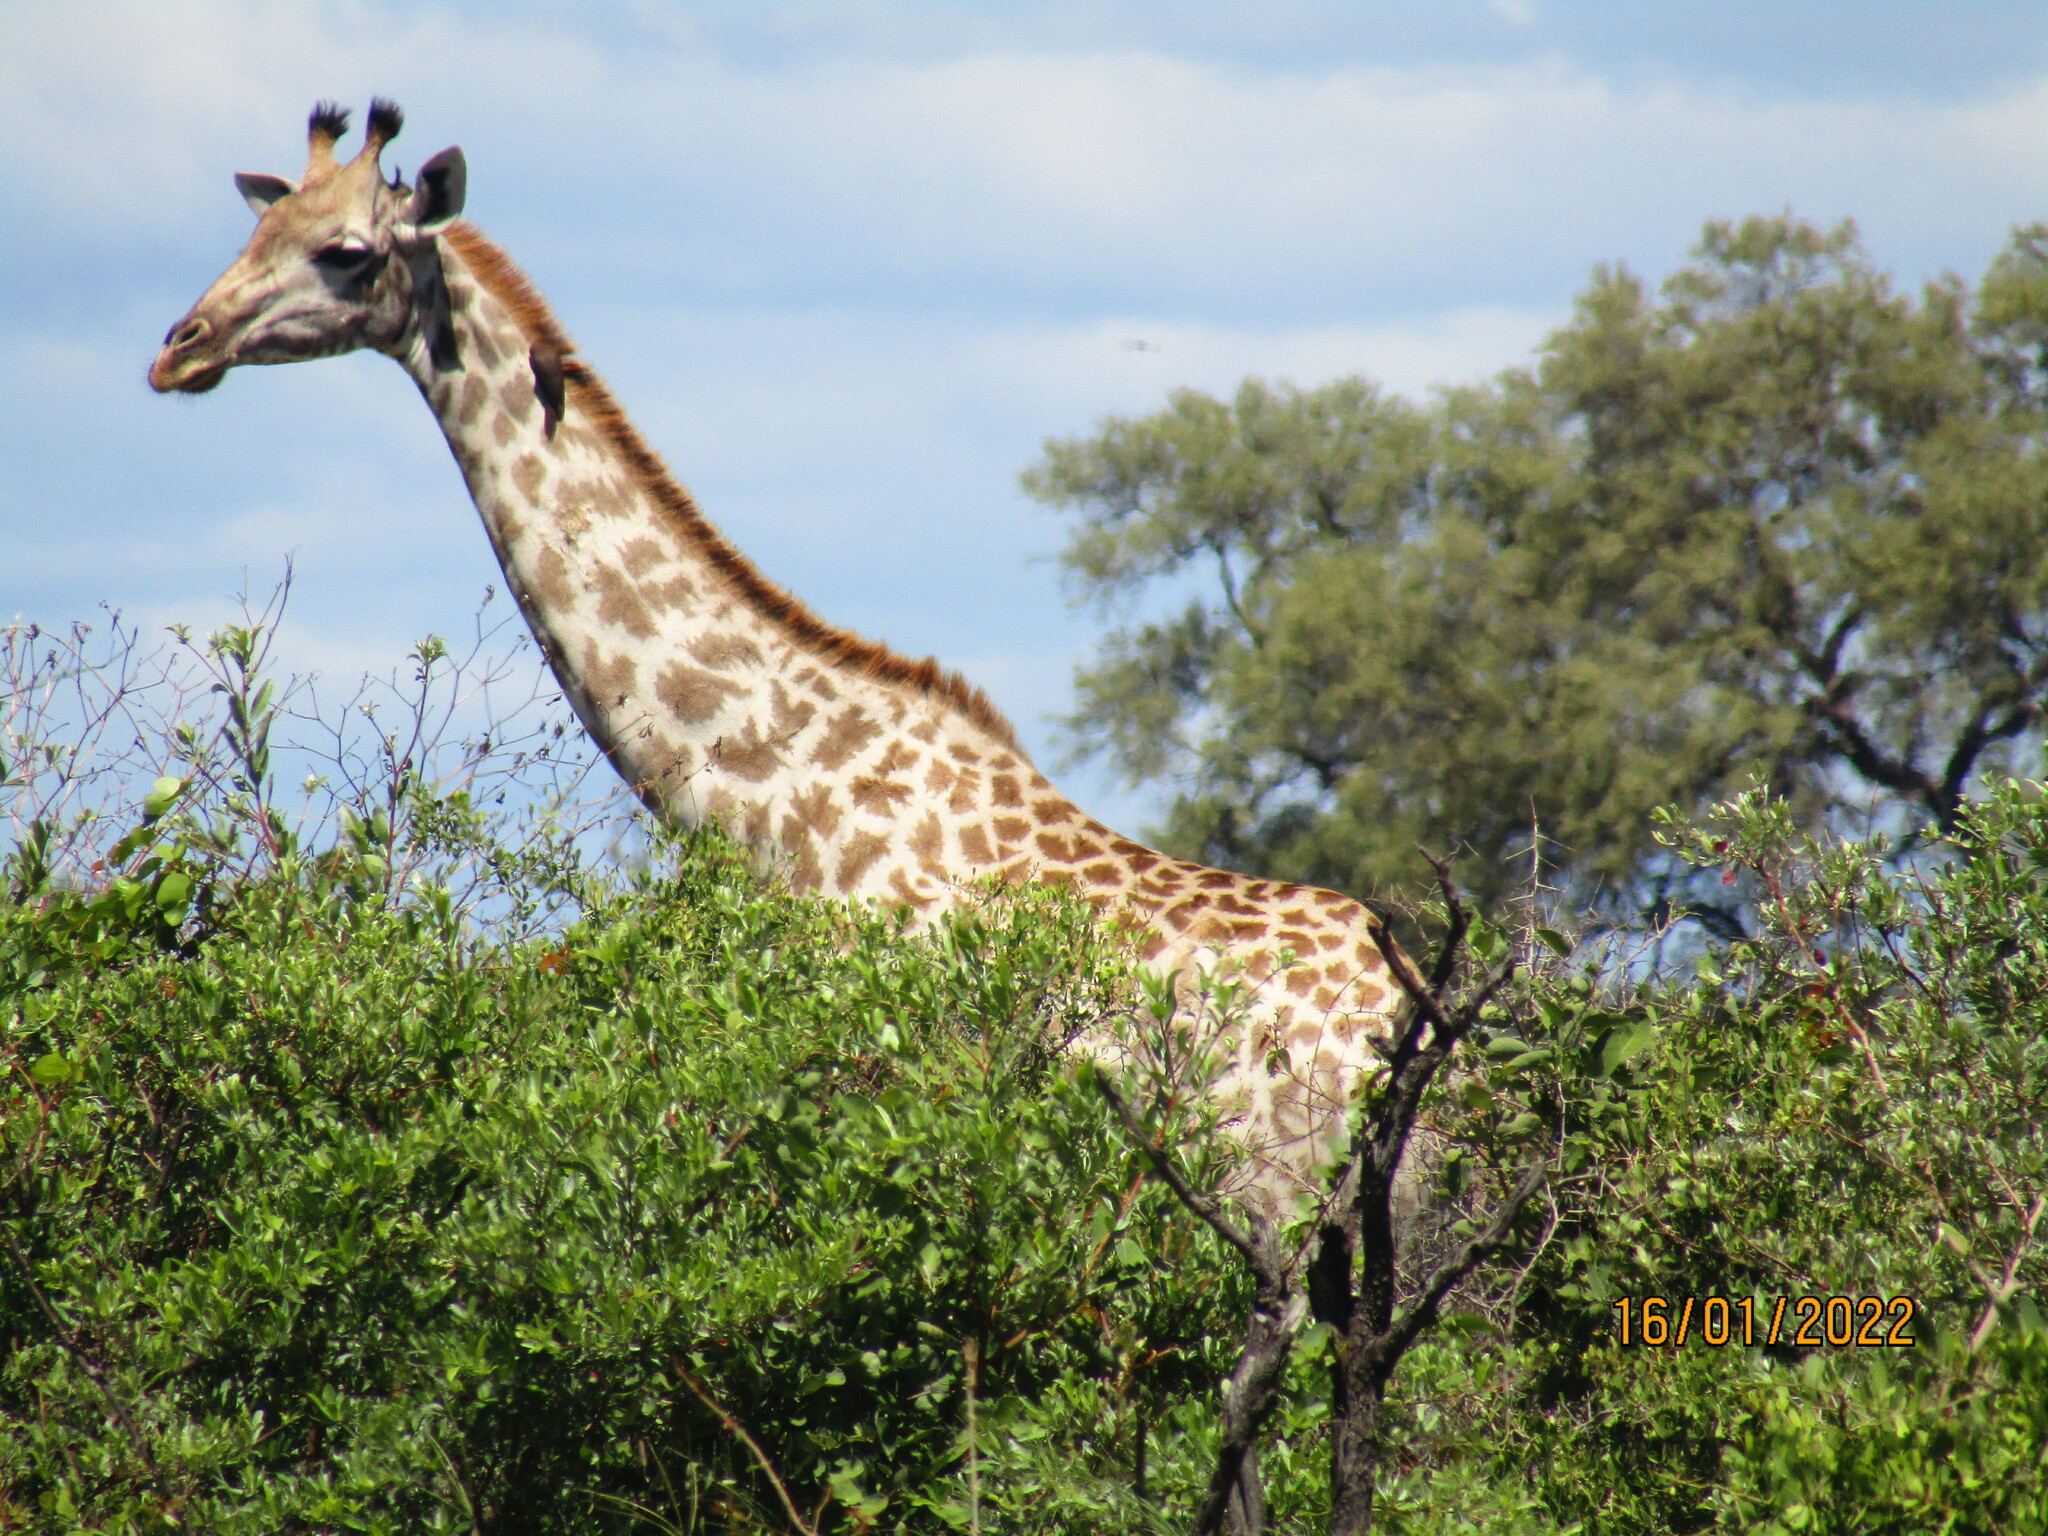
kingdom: Animalia
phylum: Chordata
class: Mammalia
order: Artiodactyla
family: Giraffidae
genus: Giraffa
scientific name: Giraffa giraffa
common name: Southern giraffe
